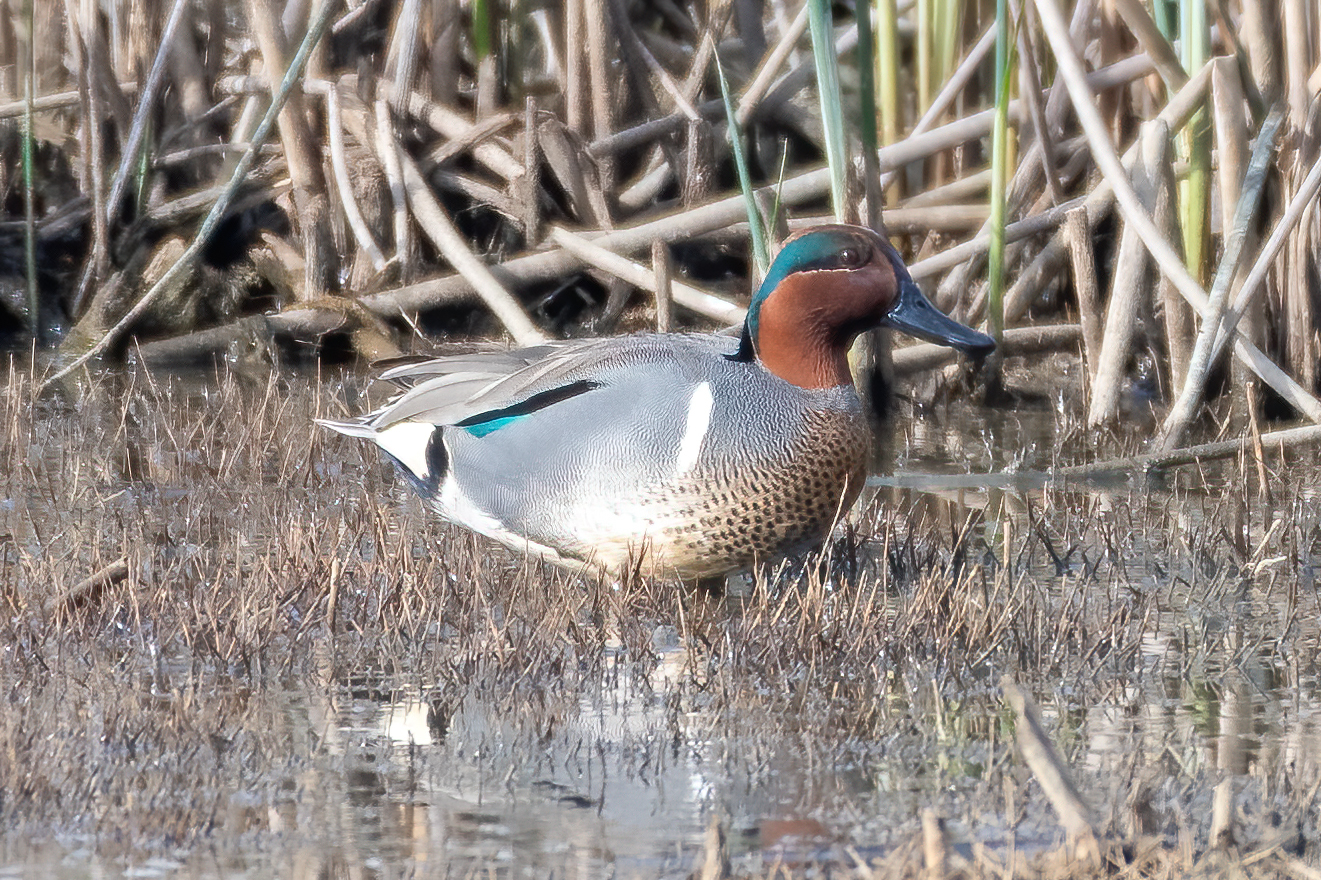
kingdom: Animalia
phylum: Chordata
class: Aves
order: Anseriformes
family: Anatidae
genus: Anas
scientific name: Anas crecca
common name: Eurasian teal
